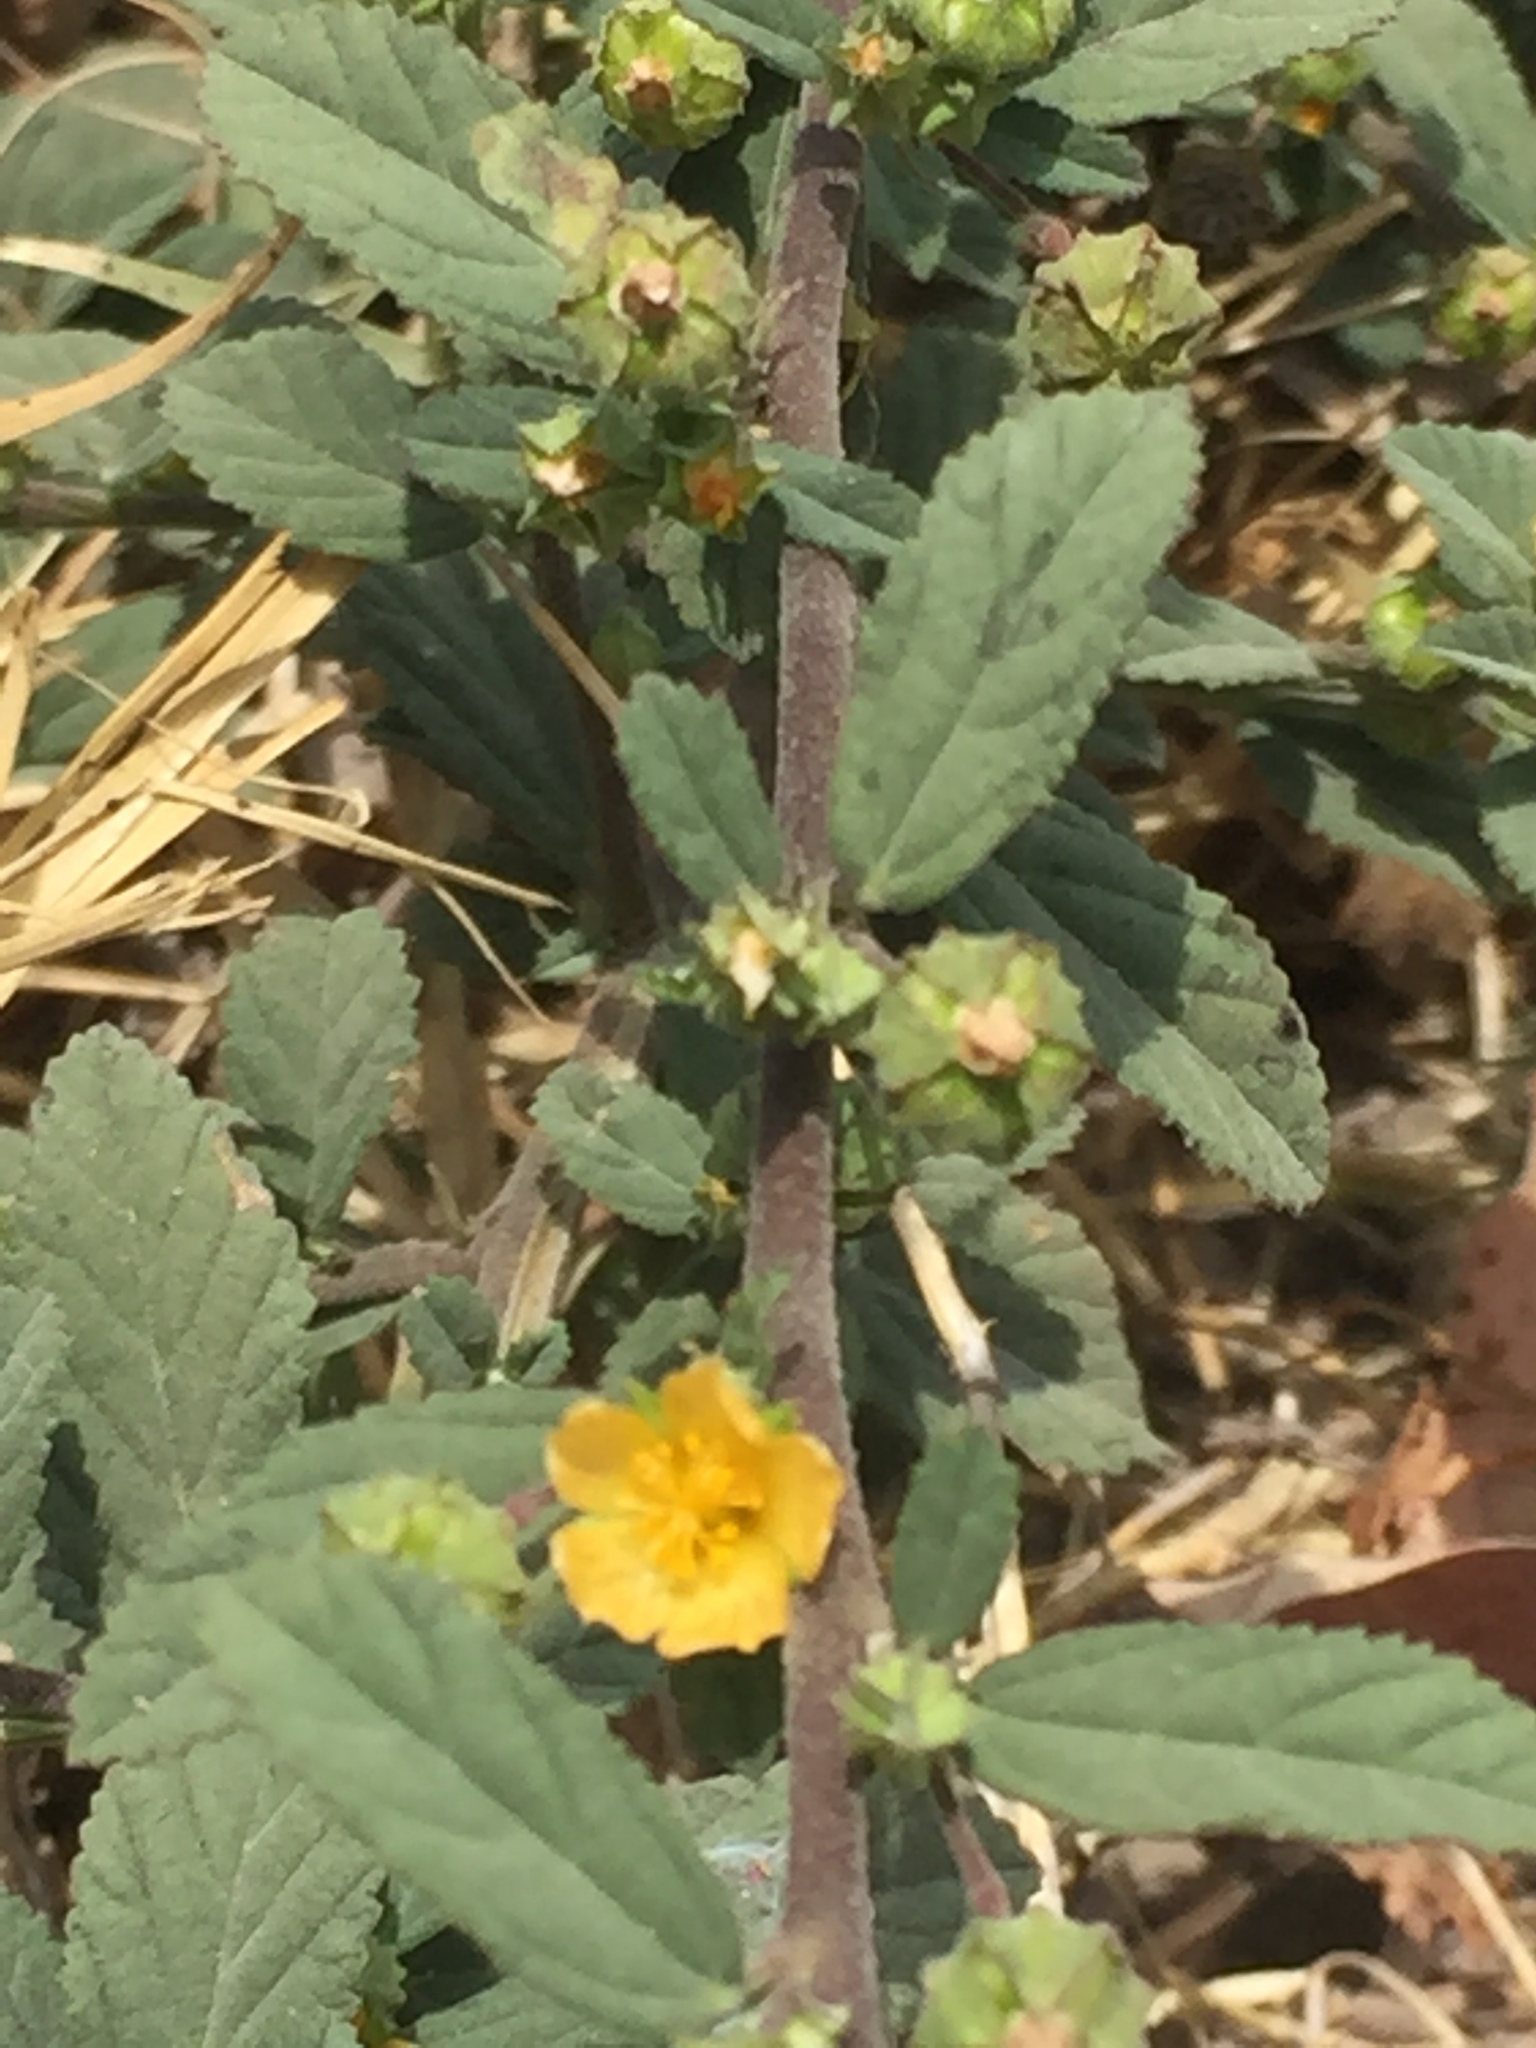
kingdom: Plantae
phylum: Tracheophyta
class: Magnoliopsida
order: Malvales
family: Malvaceae
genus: Malvastrum
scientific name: Malvastrum coromandelianum
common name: Threelobe false mallow
